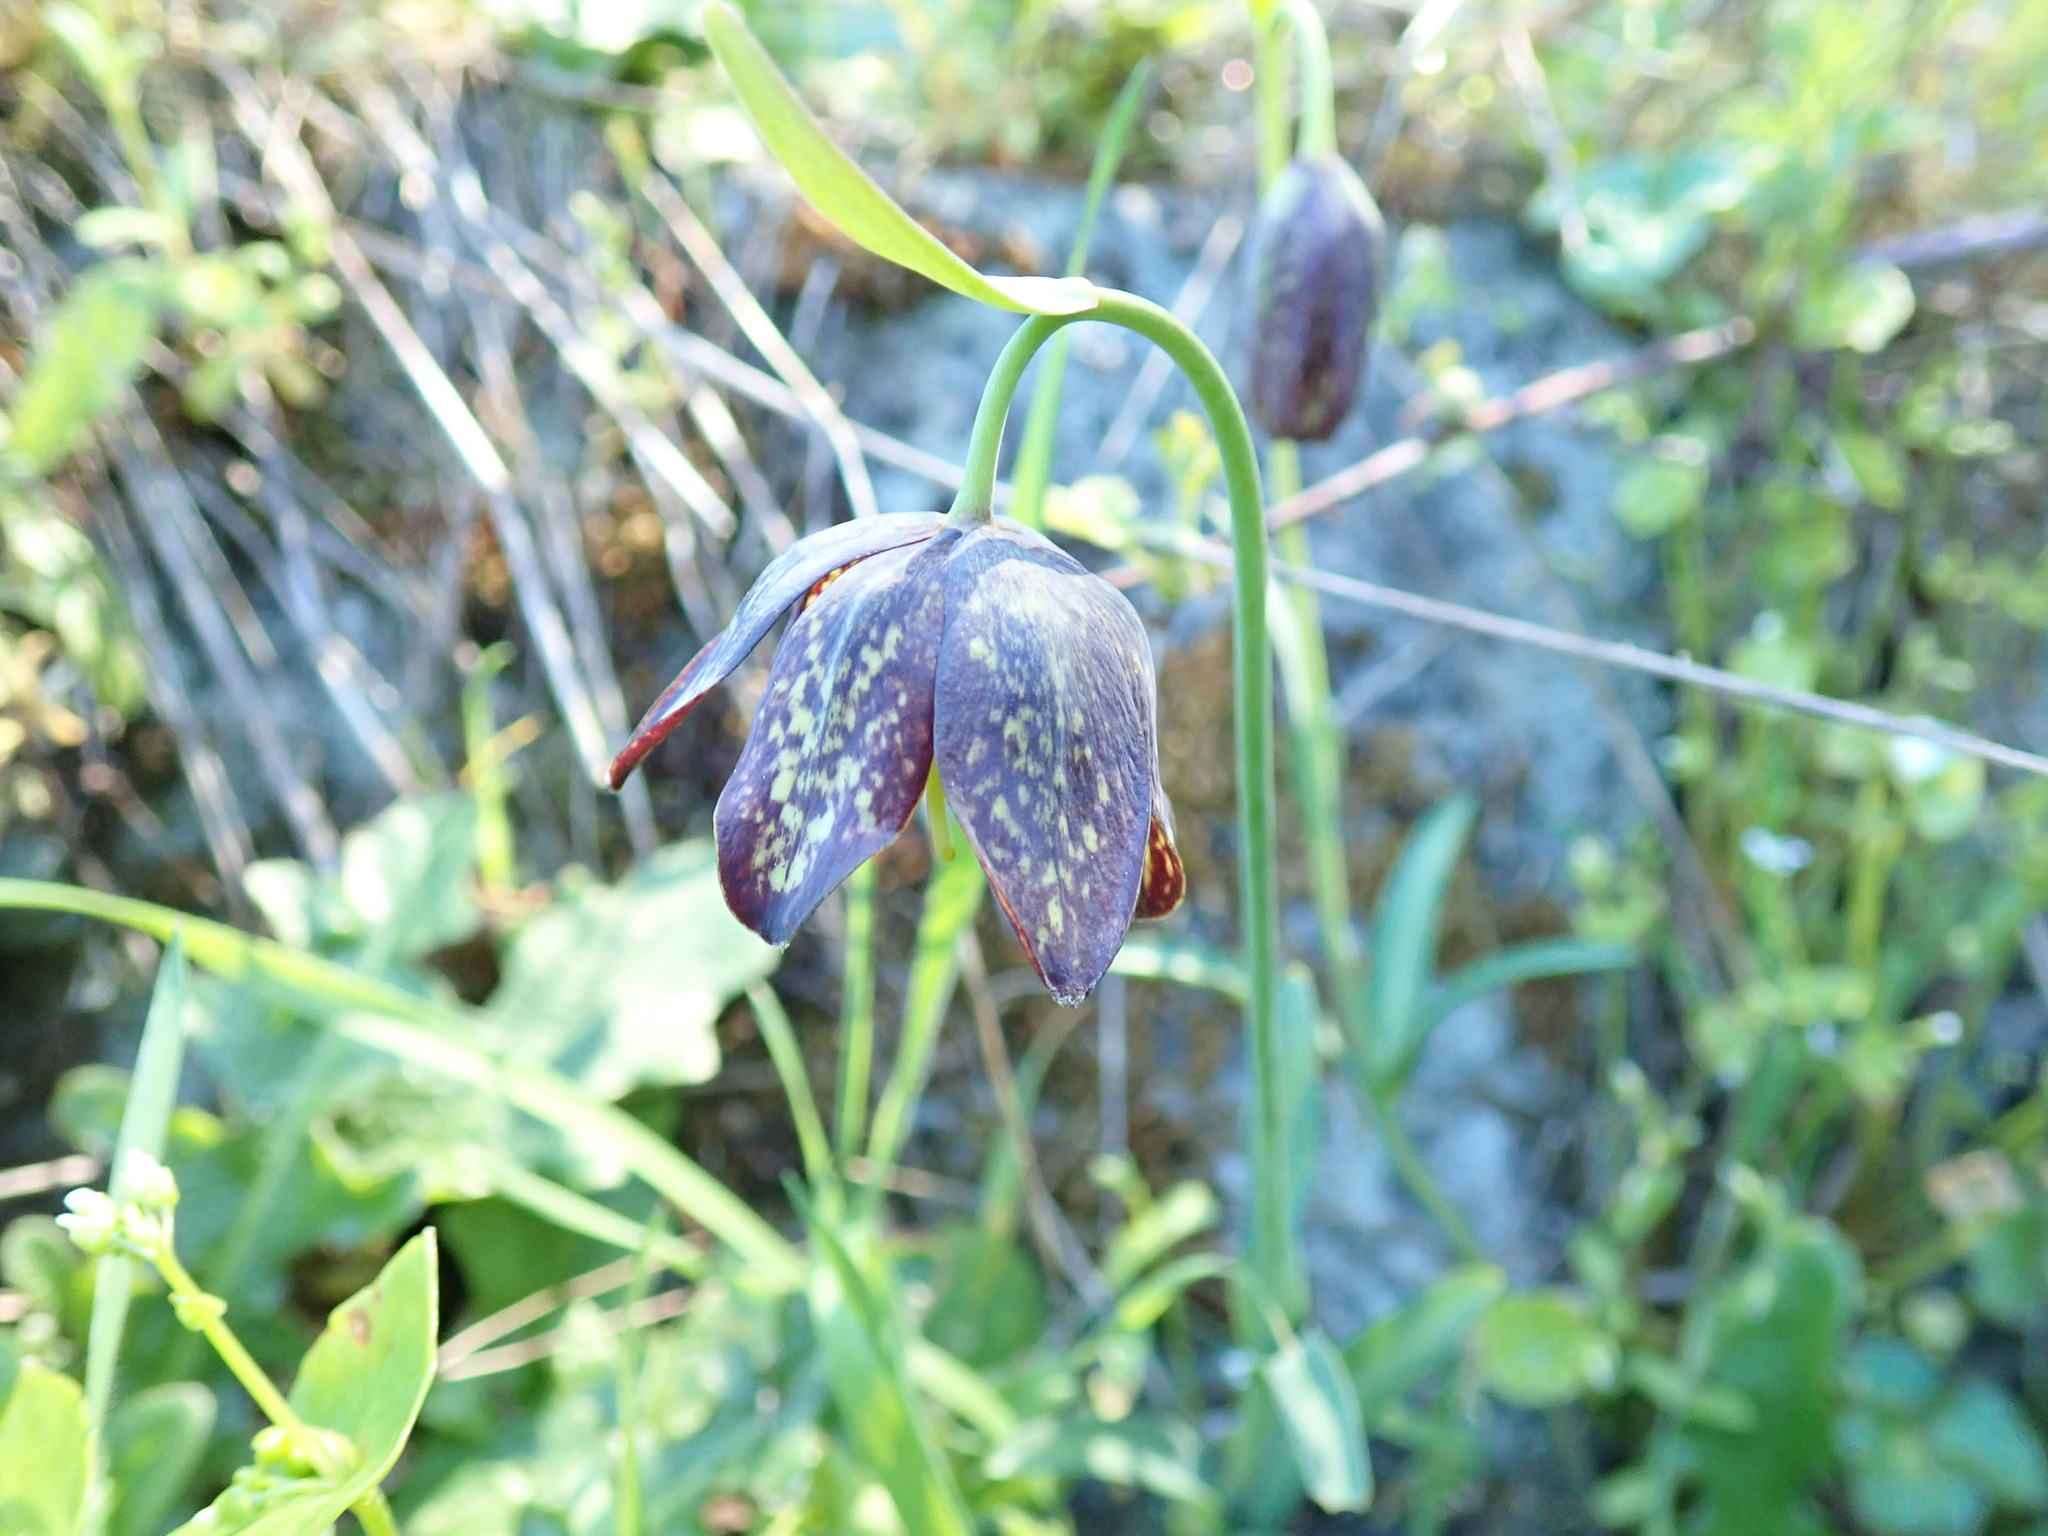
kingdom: Plantae
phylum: Tracheophyta
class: Liliopsida
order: Liliales
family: Liliaceae
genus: Fritillaria
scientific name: Fritillaria affinis
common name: Ojai fritillary
